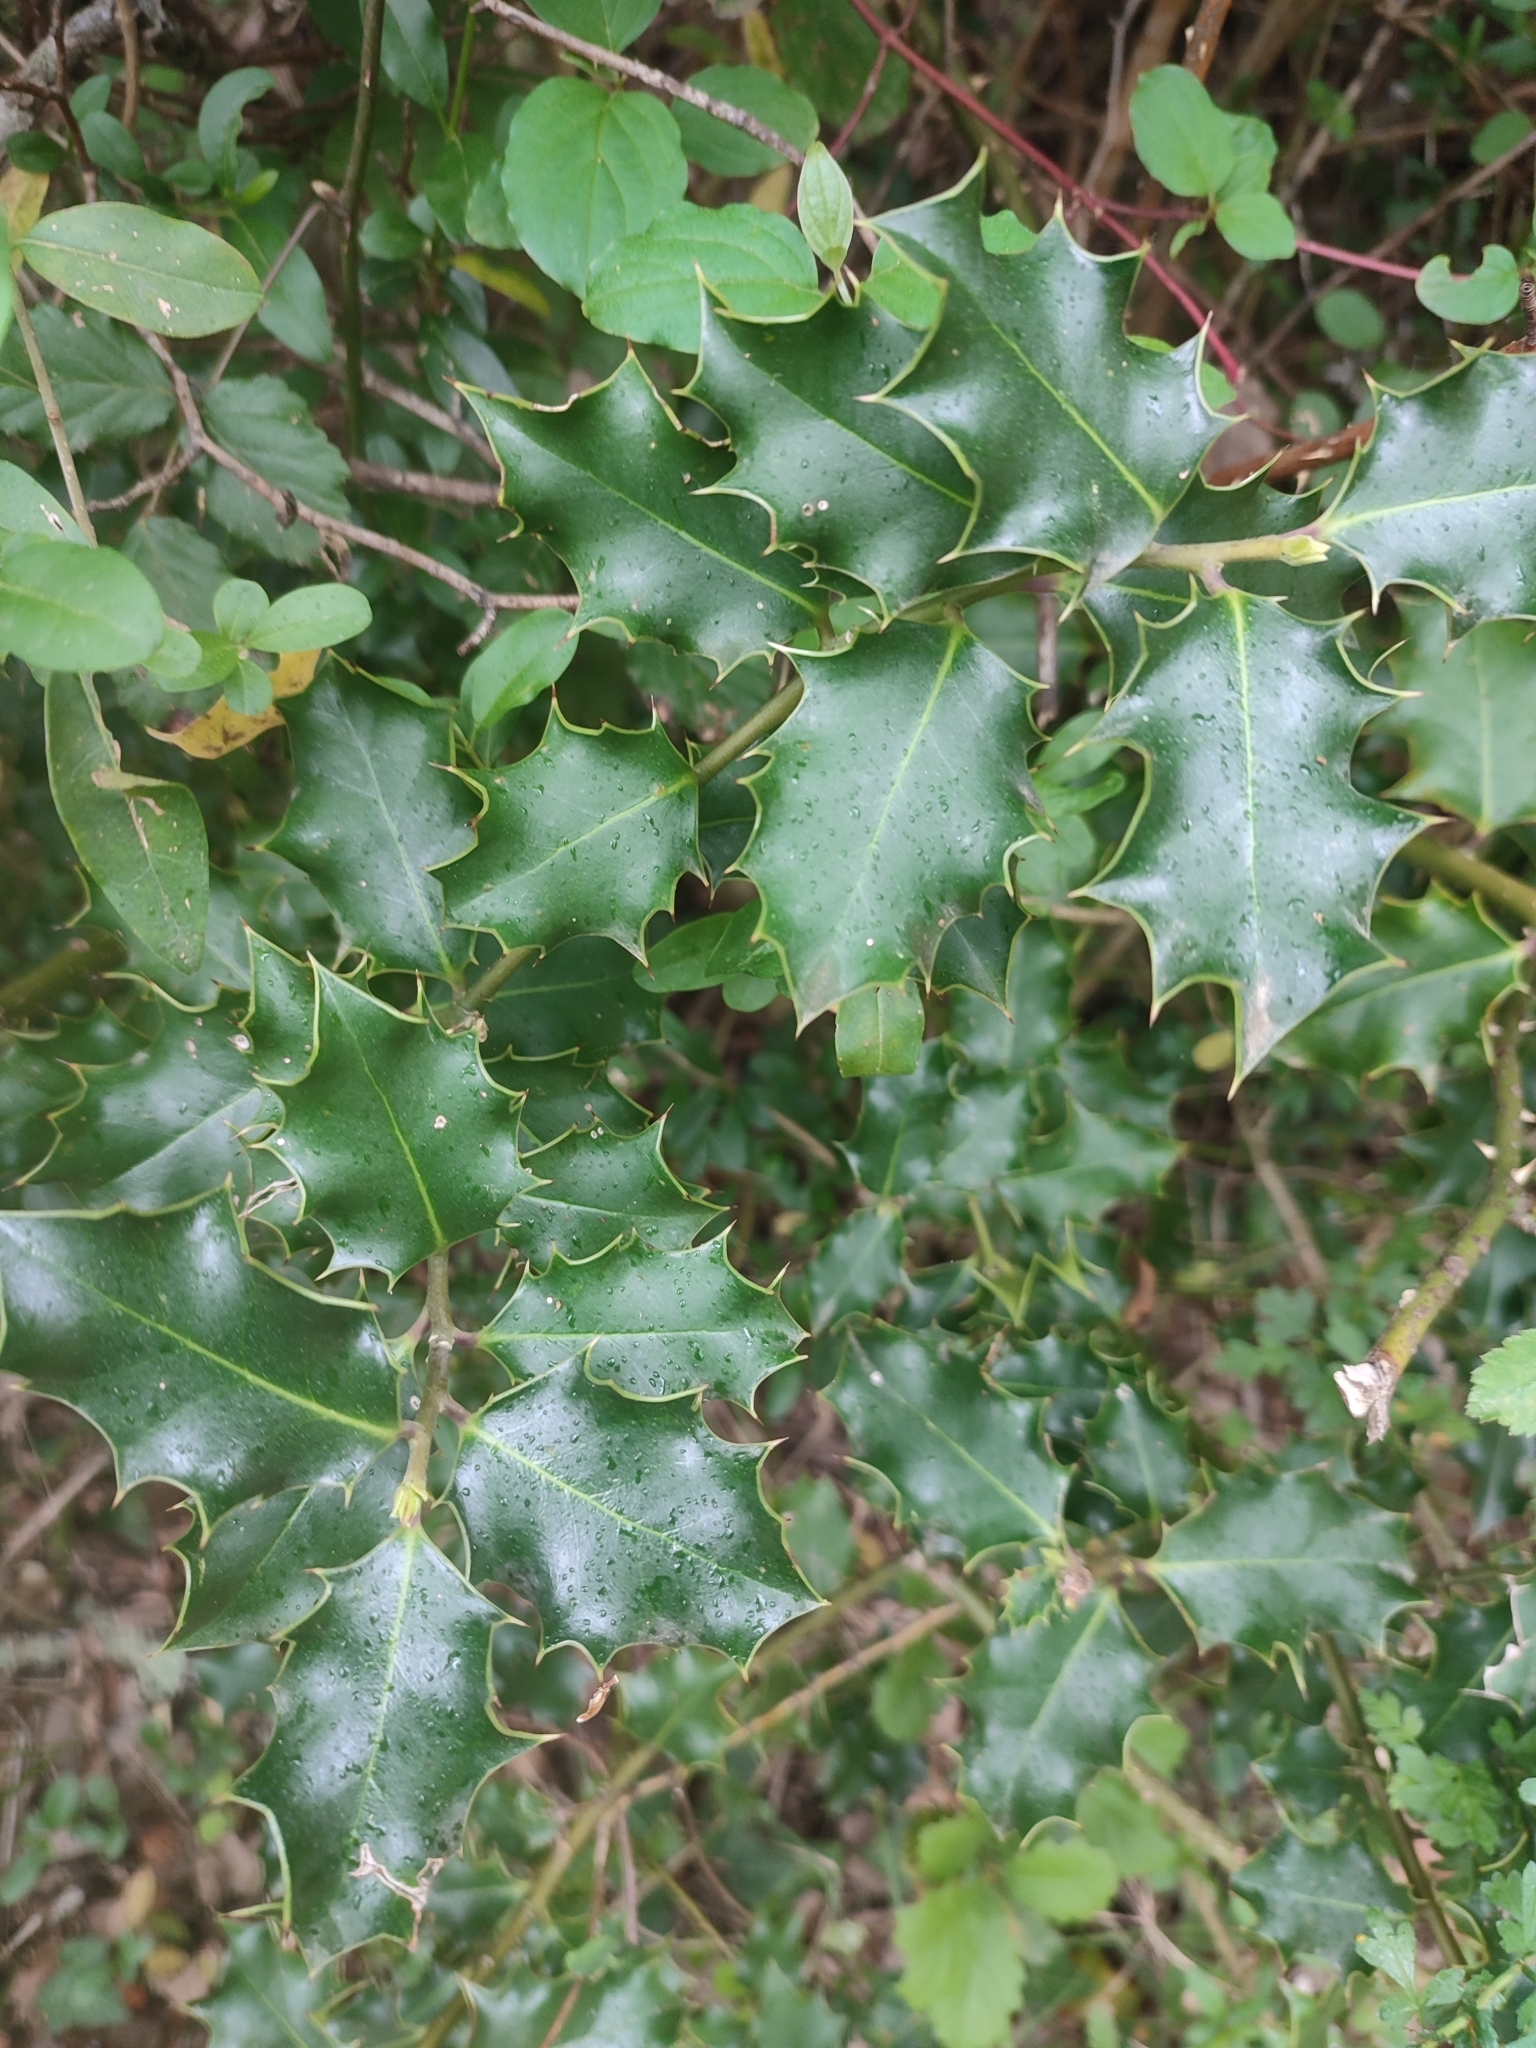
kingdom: Plantae
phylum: Tracheophyta
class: Magnoliopsida
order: Aquifoliales
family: Aquifoliaceae
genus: Ilex
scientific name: Ilex aquifolium
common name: English holly
